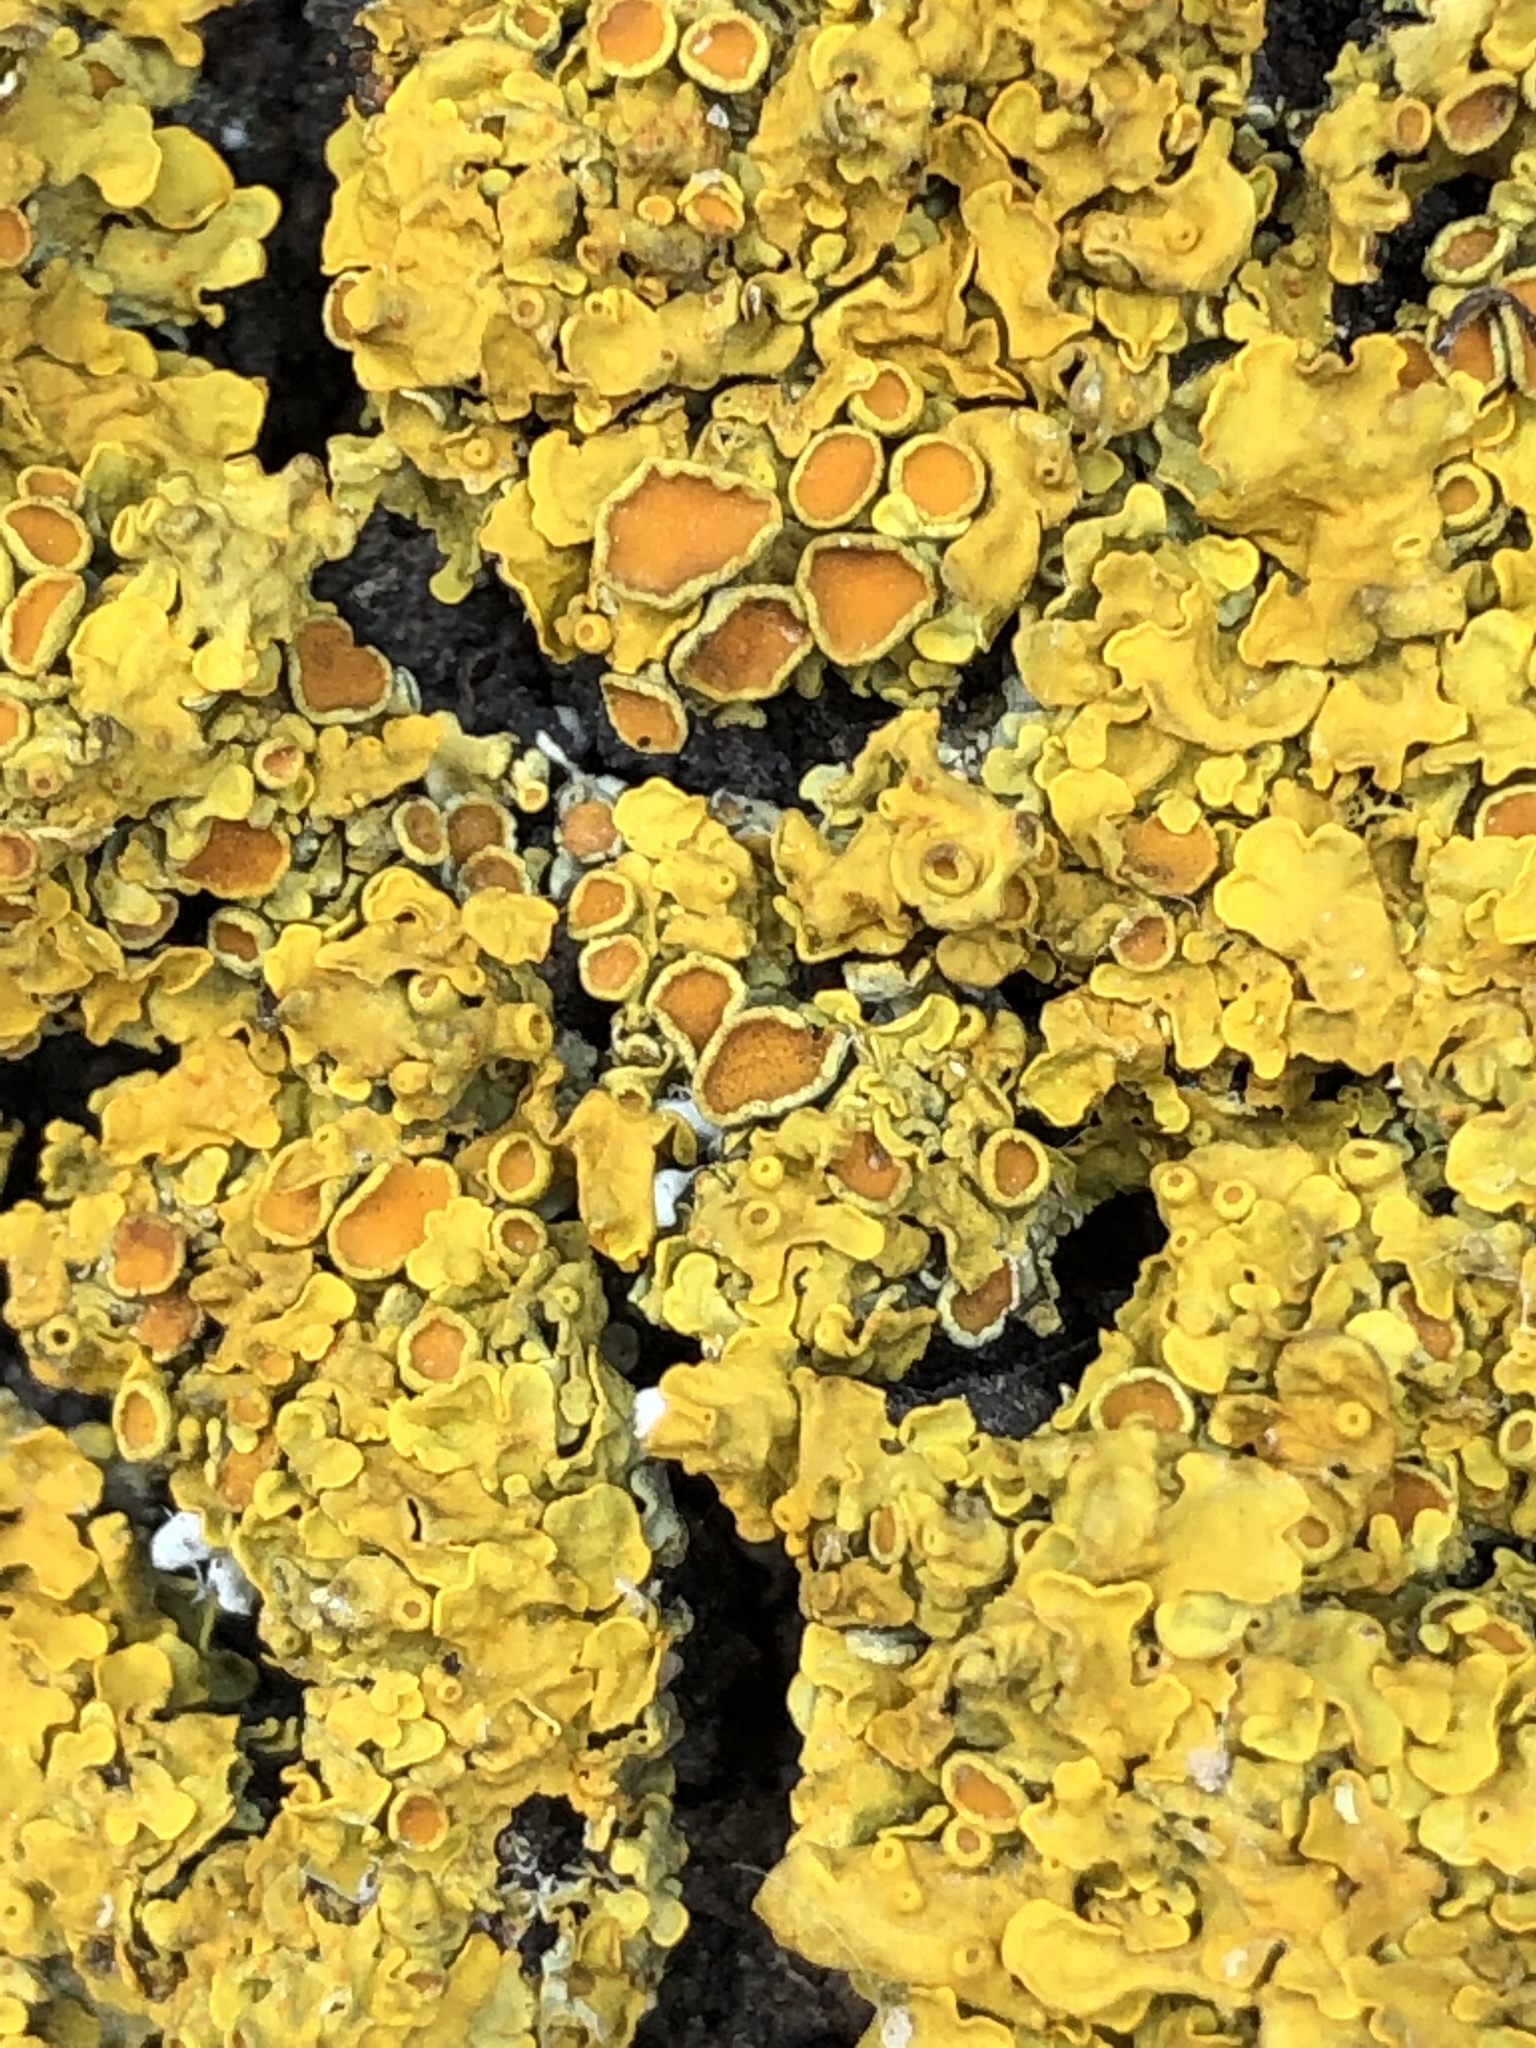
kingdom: Fungi
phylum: Ascomycota
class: Lecanoromycetes
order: Teloschistales
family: Teloschistaceae
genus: Xanthoria
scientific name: Xanthoria parietina
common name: Common orange lichen
